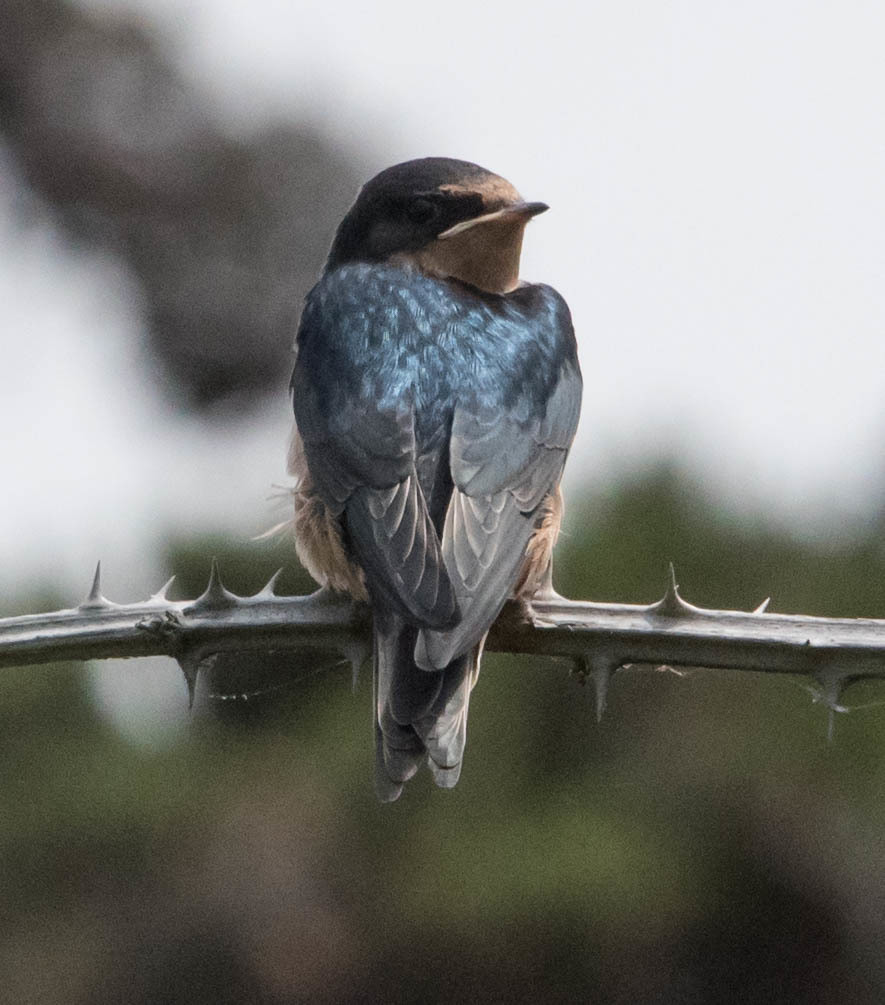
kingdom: Animalia
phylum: Chordata
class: Aves
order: Passeriformes
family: Hirundinidae
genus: Hirundo
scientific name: Hirundo rustica
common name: Barn swallow
